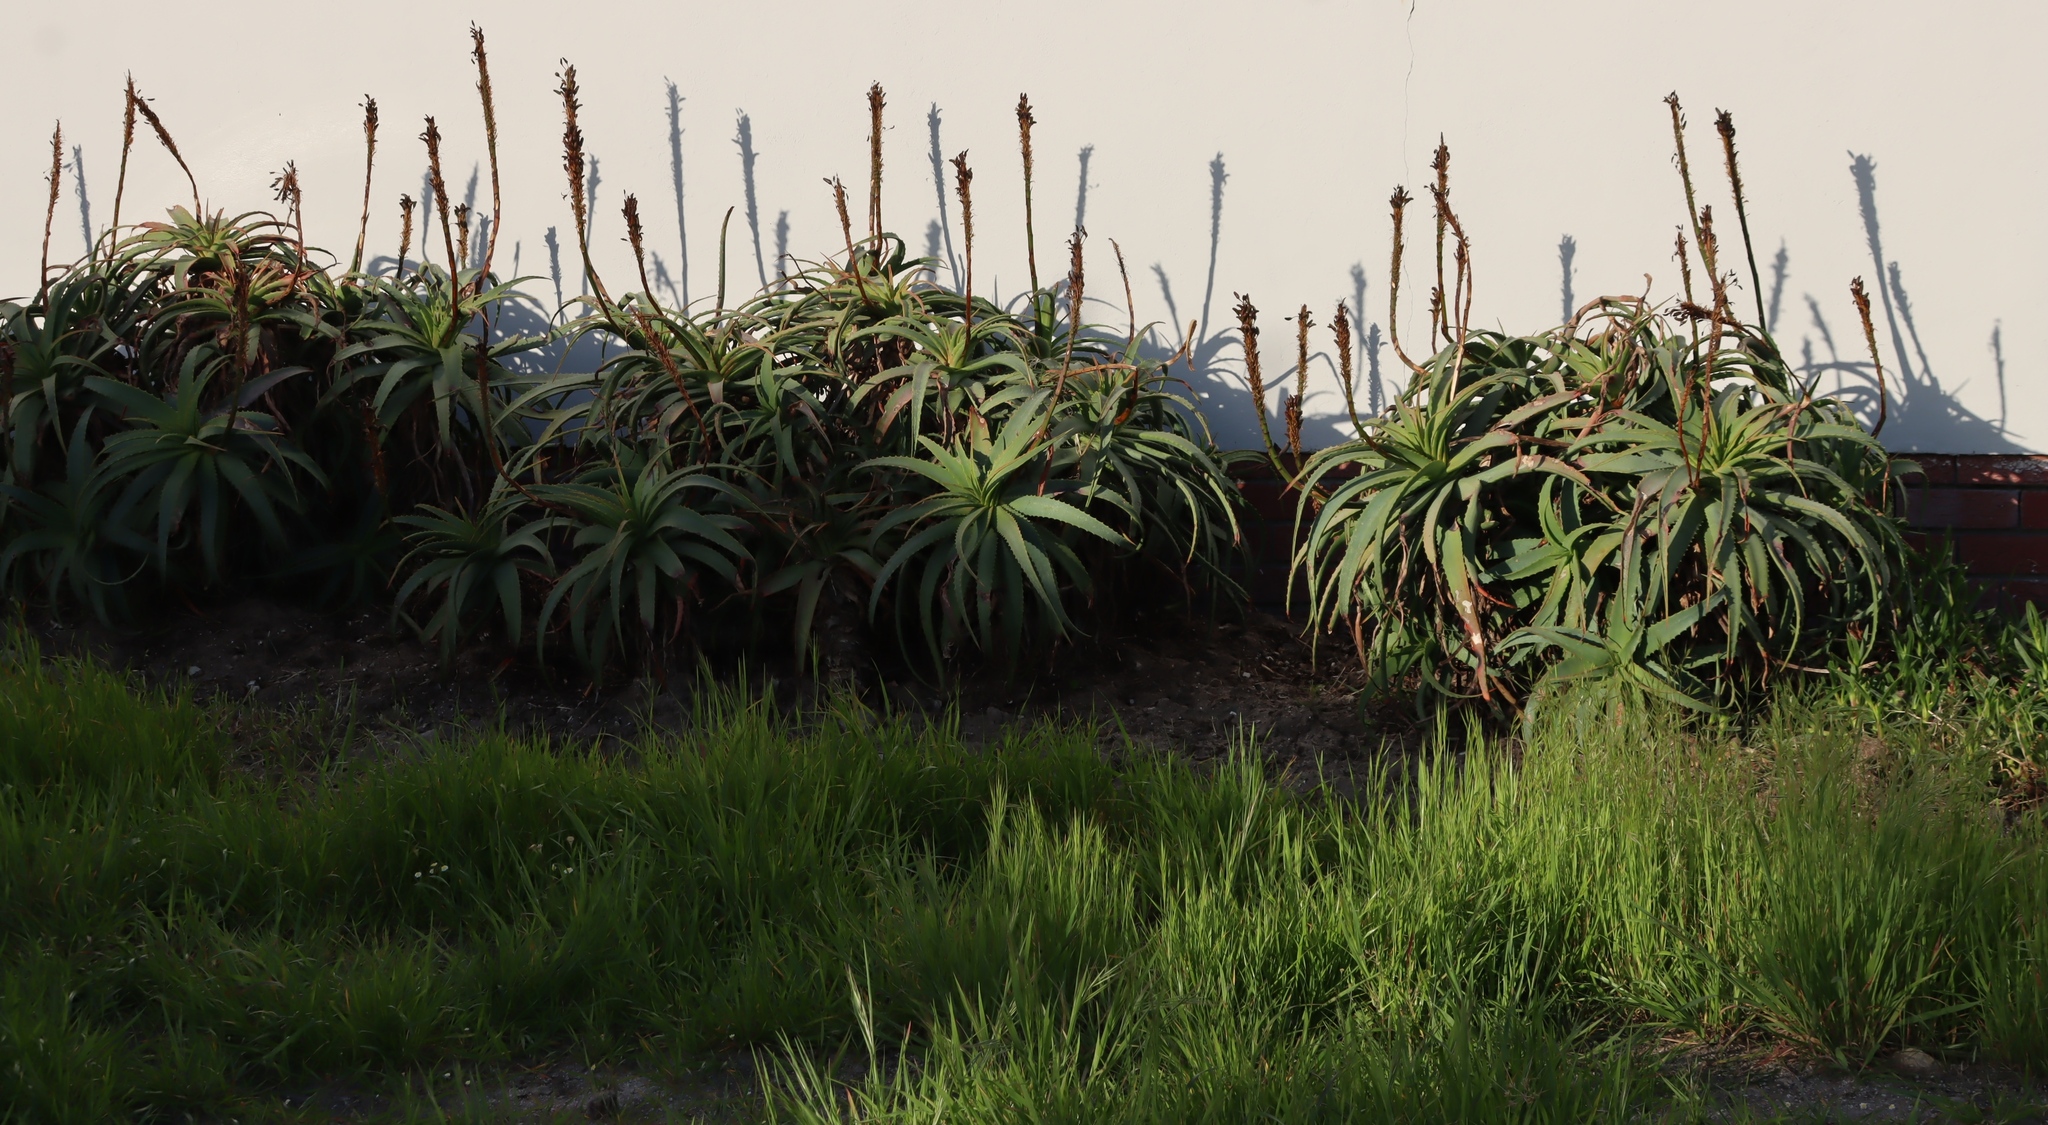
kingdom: Plantae
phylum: Tracheophyta
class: Liliopsida
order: Asparagales
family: Asphodelaceae
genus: Aloe
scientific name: Aloe arborescens
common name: Candelabra aloe
